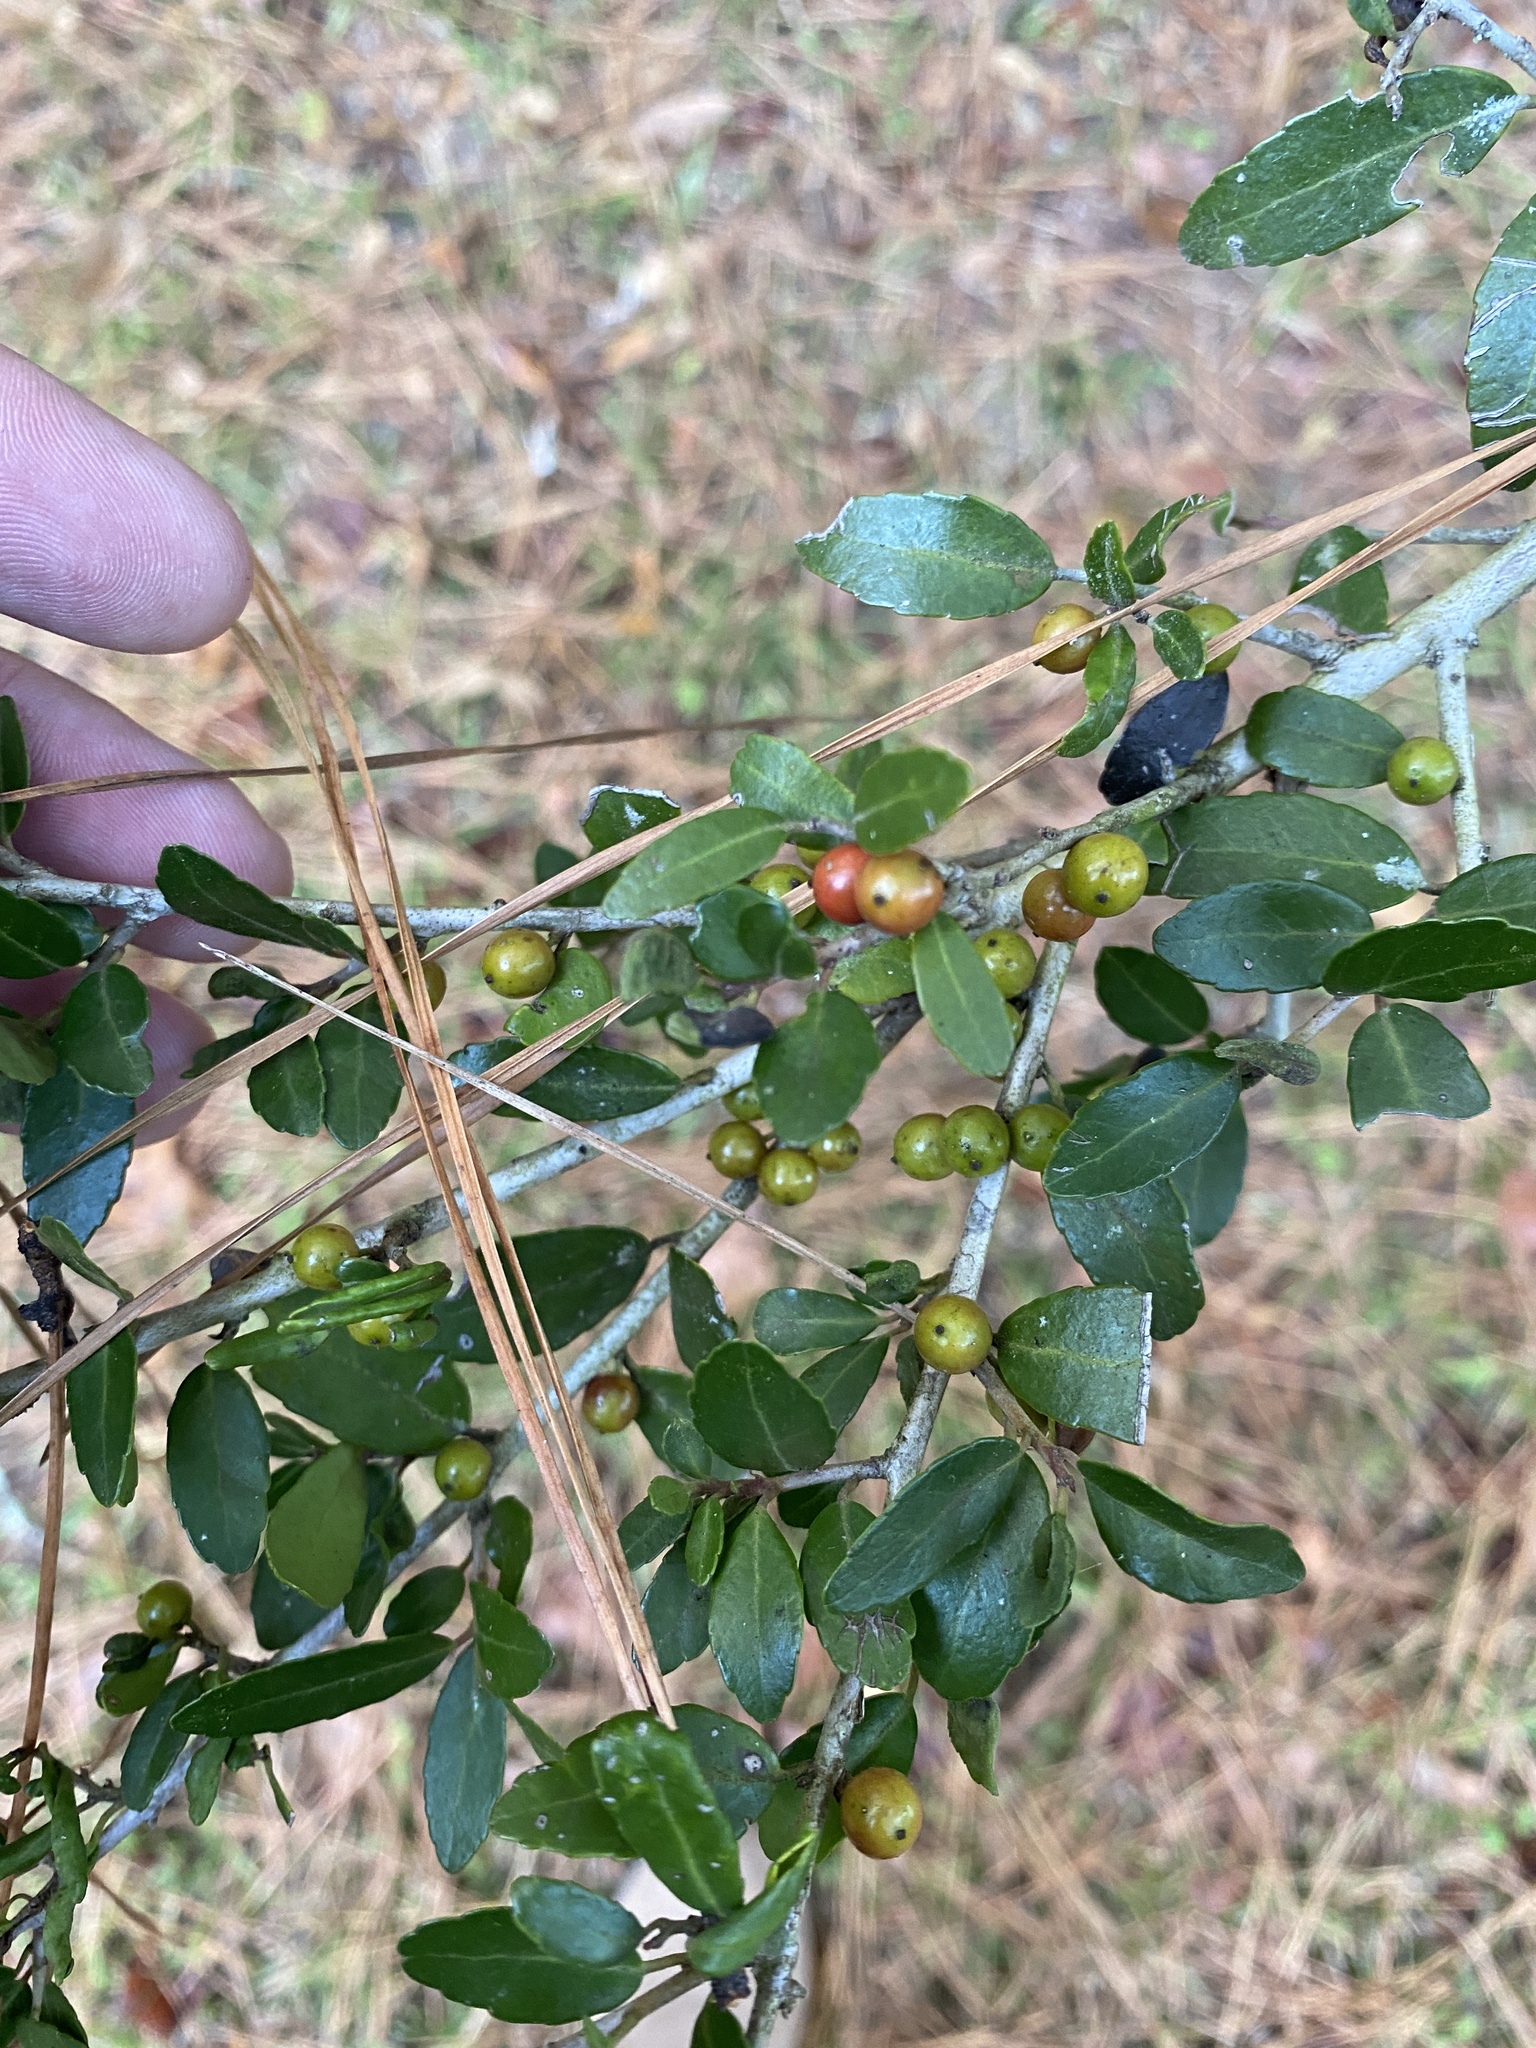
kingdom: Plantae
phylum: Tracheophyta
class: Magnoliopsida
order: Aquifoliales
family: Aquifoliaceae
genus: Ilex
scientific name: Ilex vomitoria
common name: Yaupon holly
